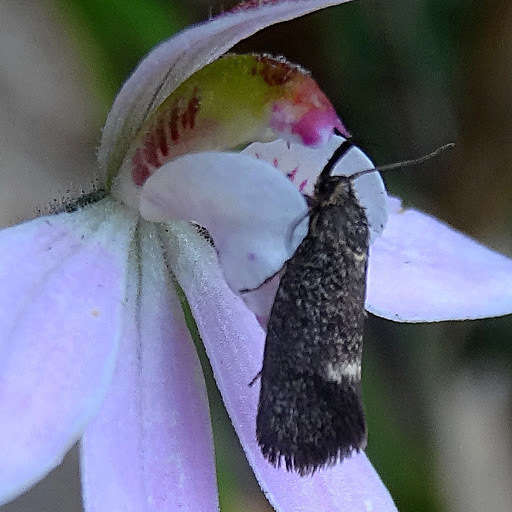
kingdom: Animalia
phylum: Arthropoda
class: Insecta
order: Lepidoptera
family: Oecophoridae
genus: Leistomorpha
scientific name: Leistomorpha brontoscopa
